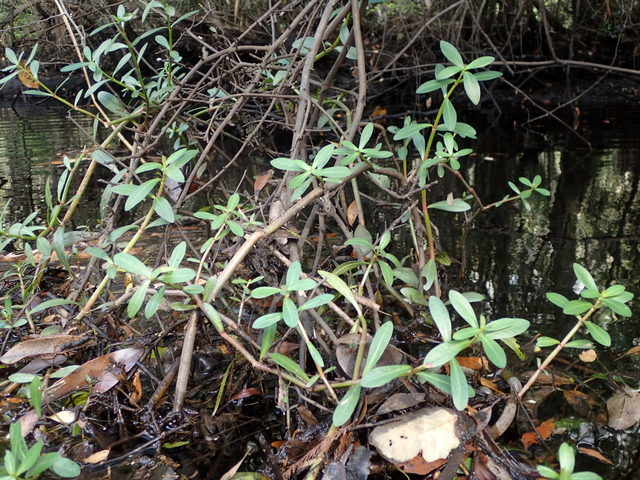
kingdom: Plantae
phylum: Tracheophyta
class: Magnoliopsida
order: Caryophyllales
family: Amaranthaceae
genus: Alternanthera
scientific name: Alternanthera philoxeroides
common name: Alligatorweed
